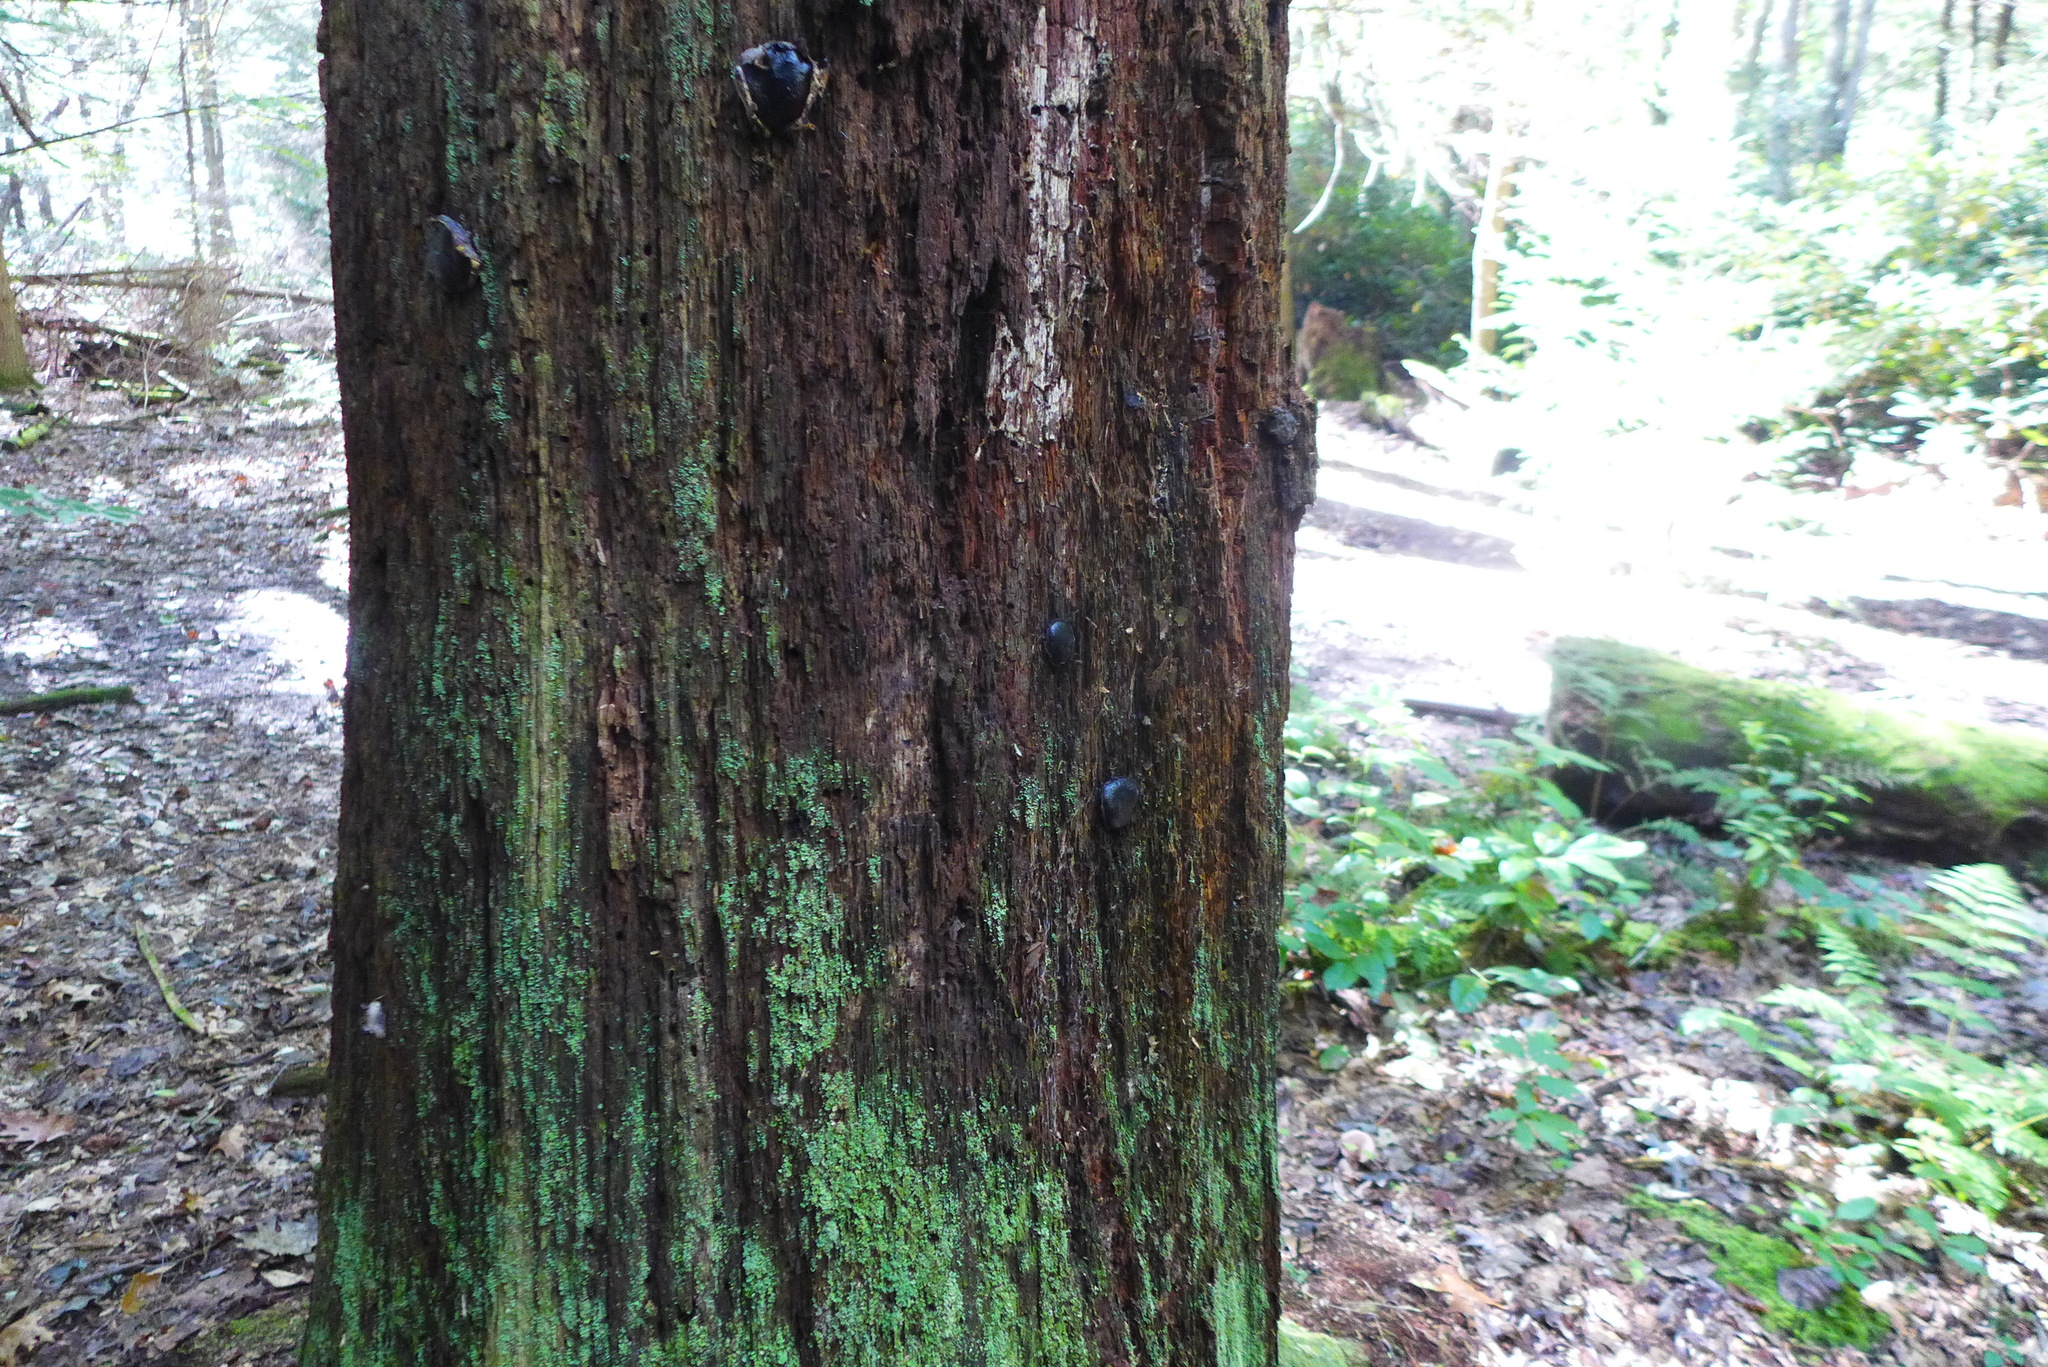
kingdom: Fungi
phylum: Ascomycota
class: Sordariomycetes
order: Boliniales
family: Boliniaceae
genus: Camarops
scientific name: Camarops petersii
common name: Dog's nose fungus
